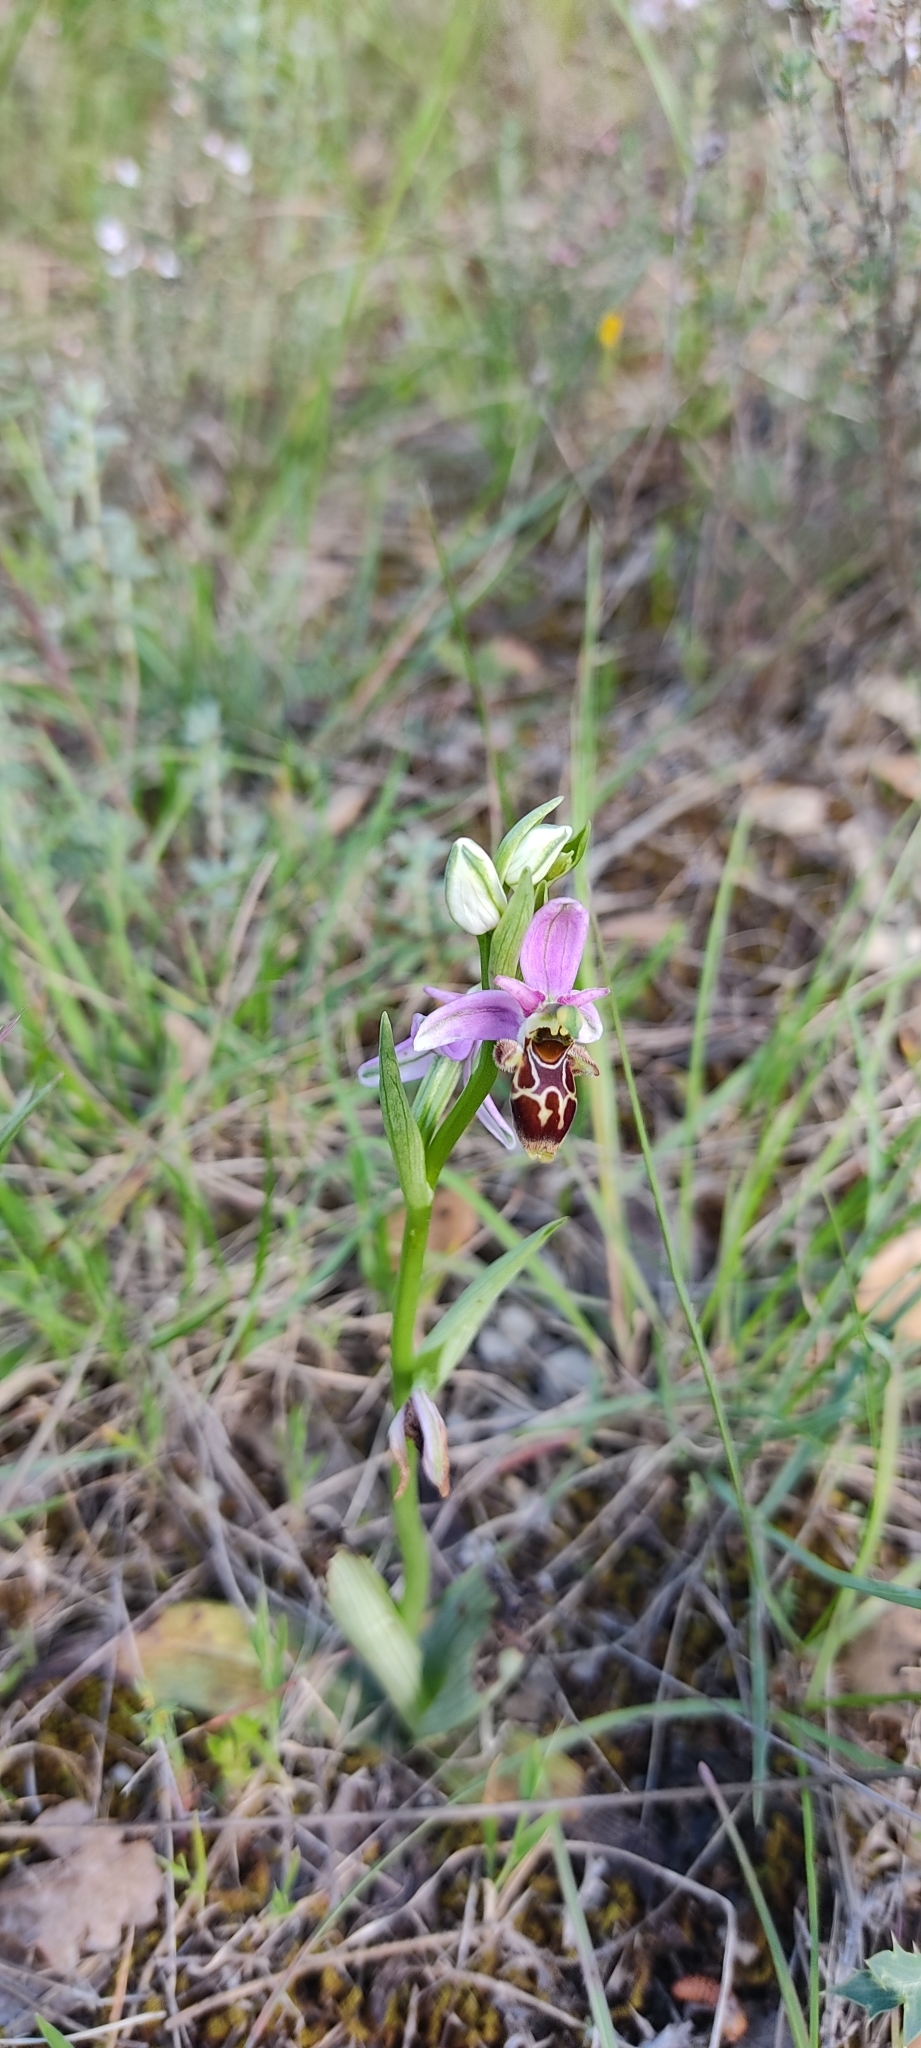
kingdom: Plantae
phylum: Tracheophyta
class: Liliopsida
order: Asparagales
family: Orchidaceae
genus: Ophrys
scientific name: Ophrys scolopax
